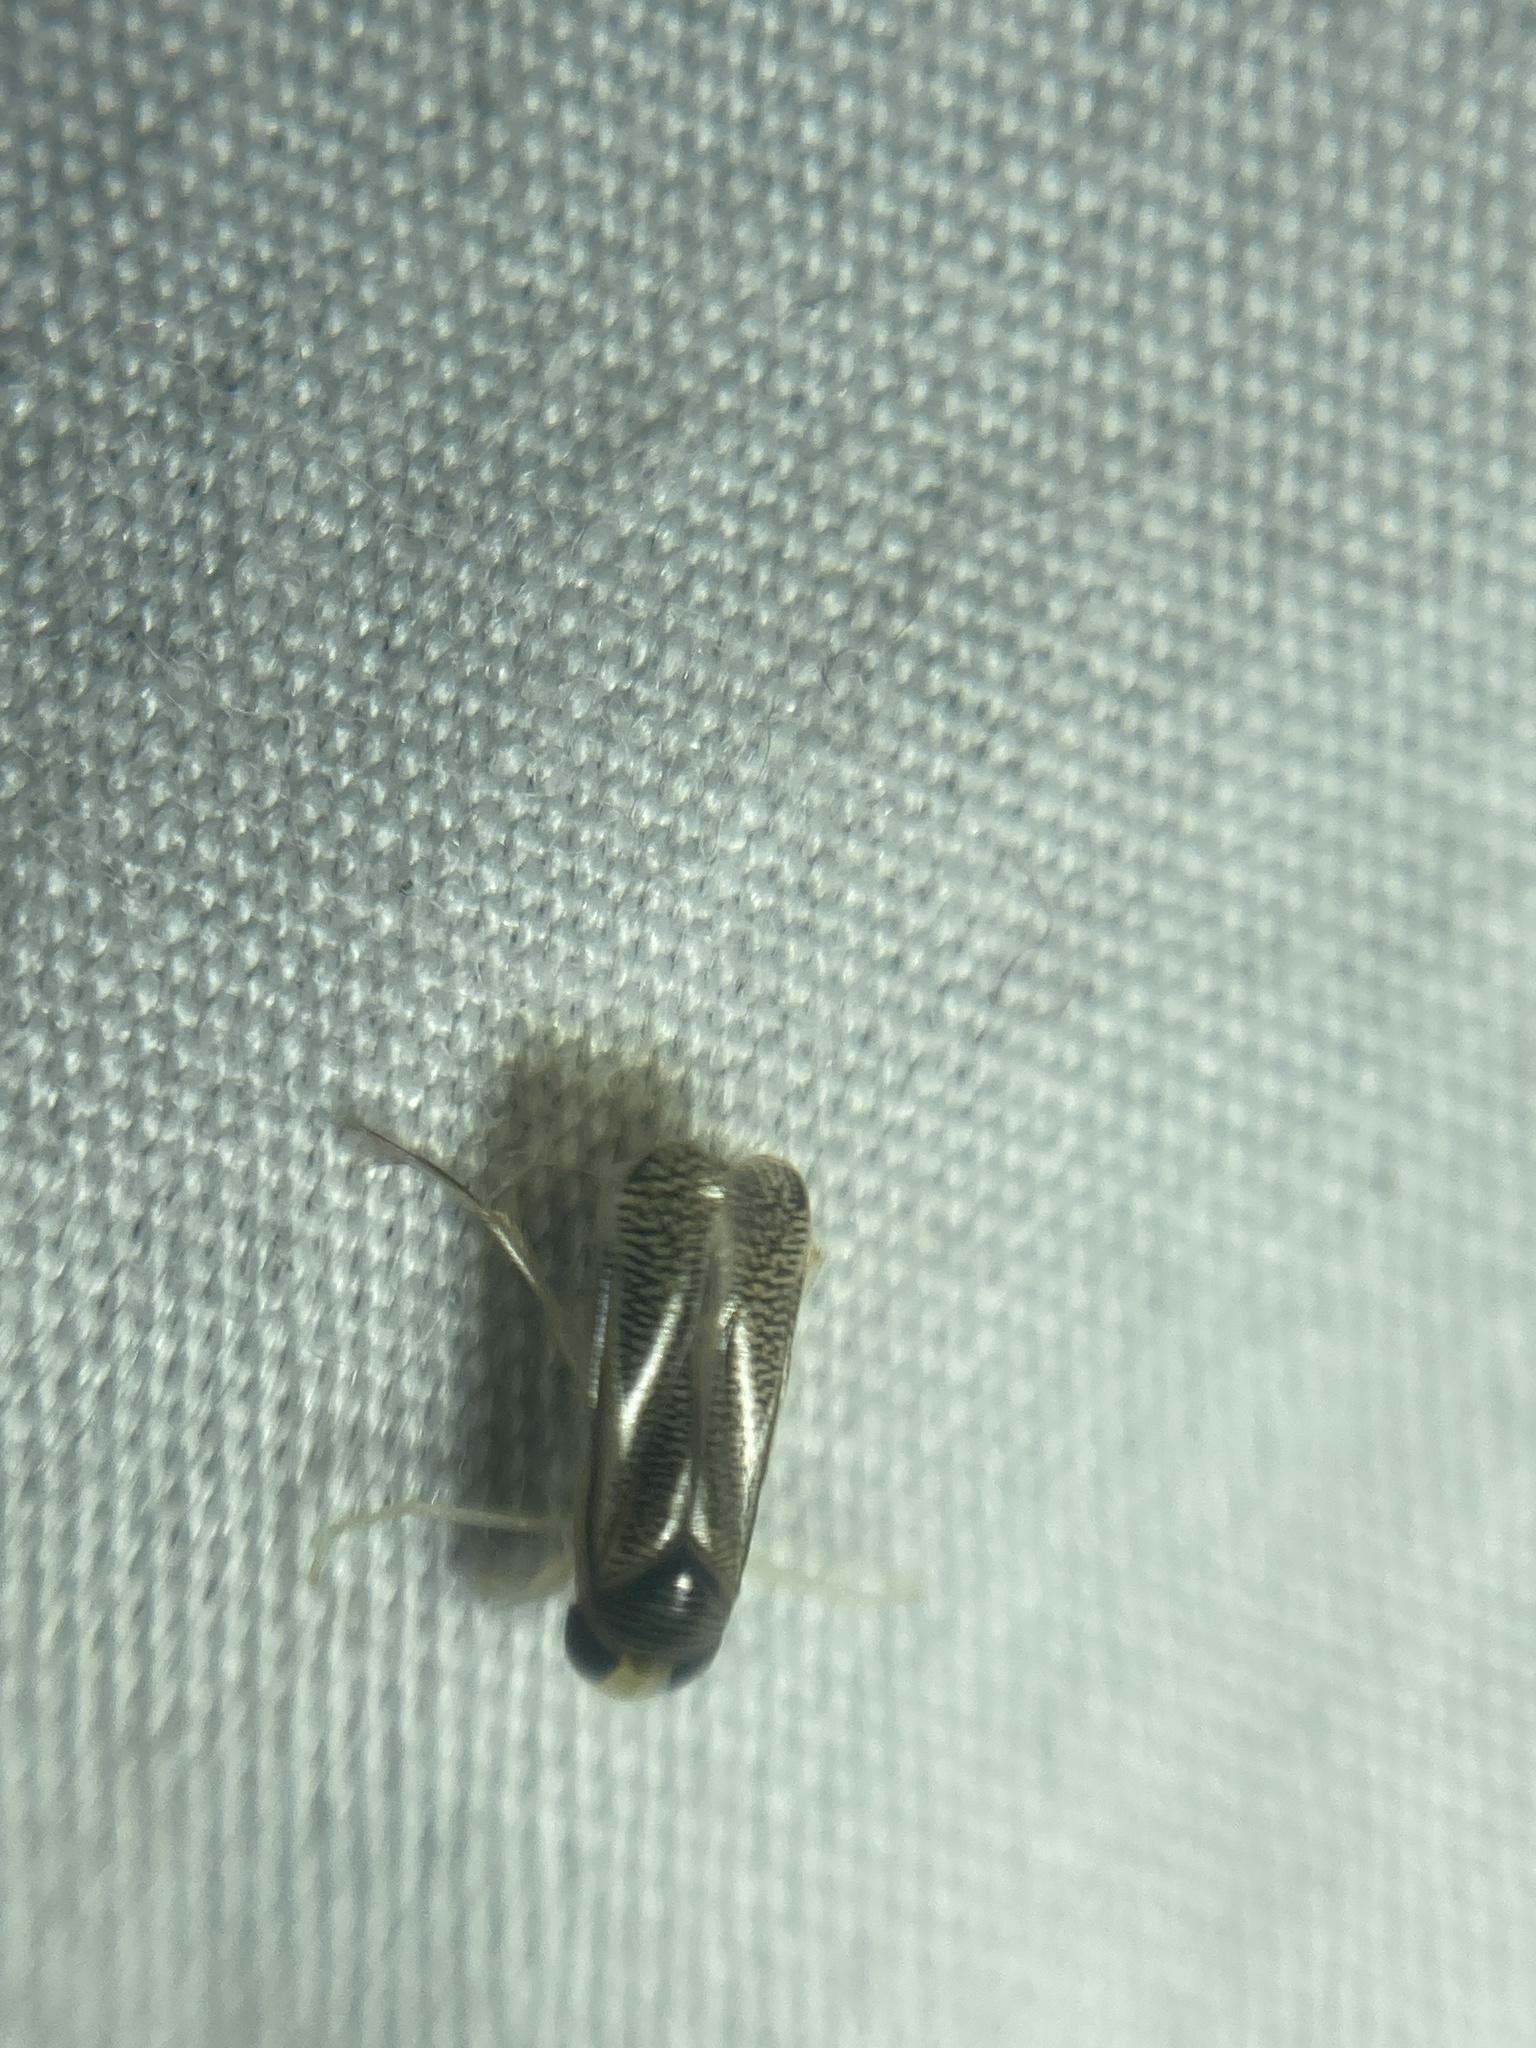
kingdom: Animalia
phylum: Arthropoda
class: Insecta
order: Hemiptera
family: Corixidae
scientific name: Corixidae
